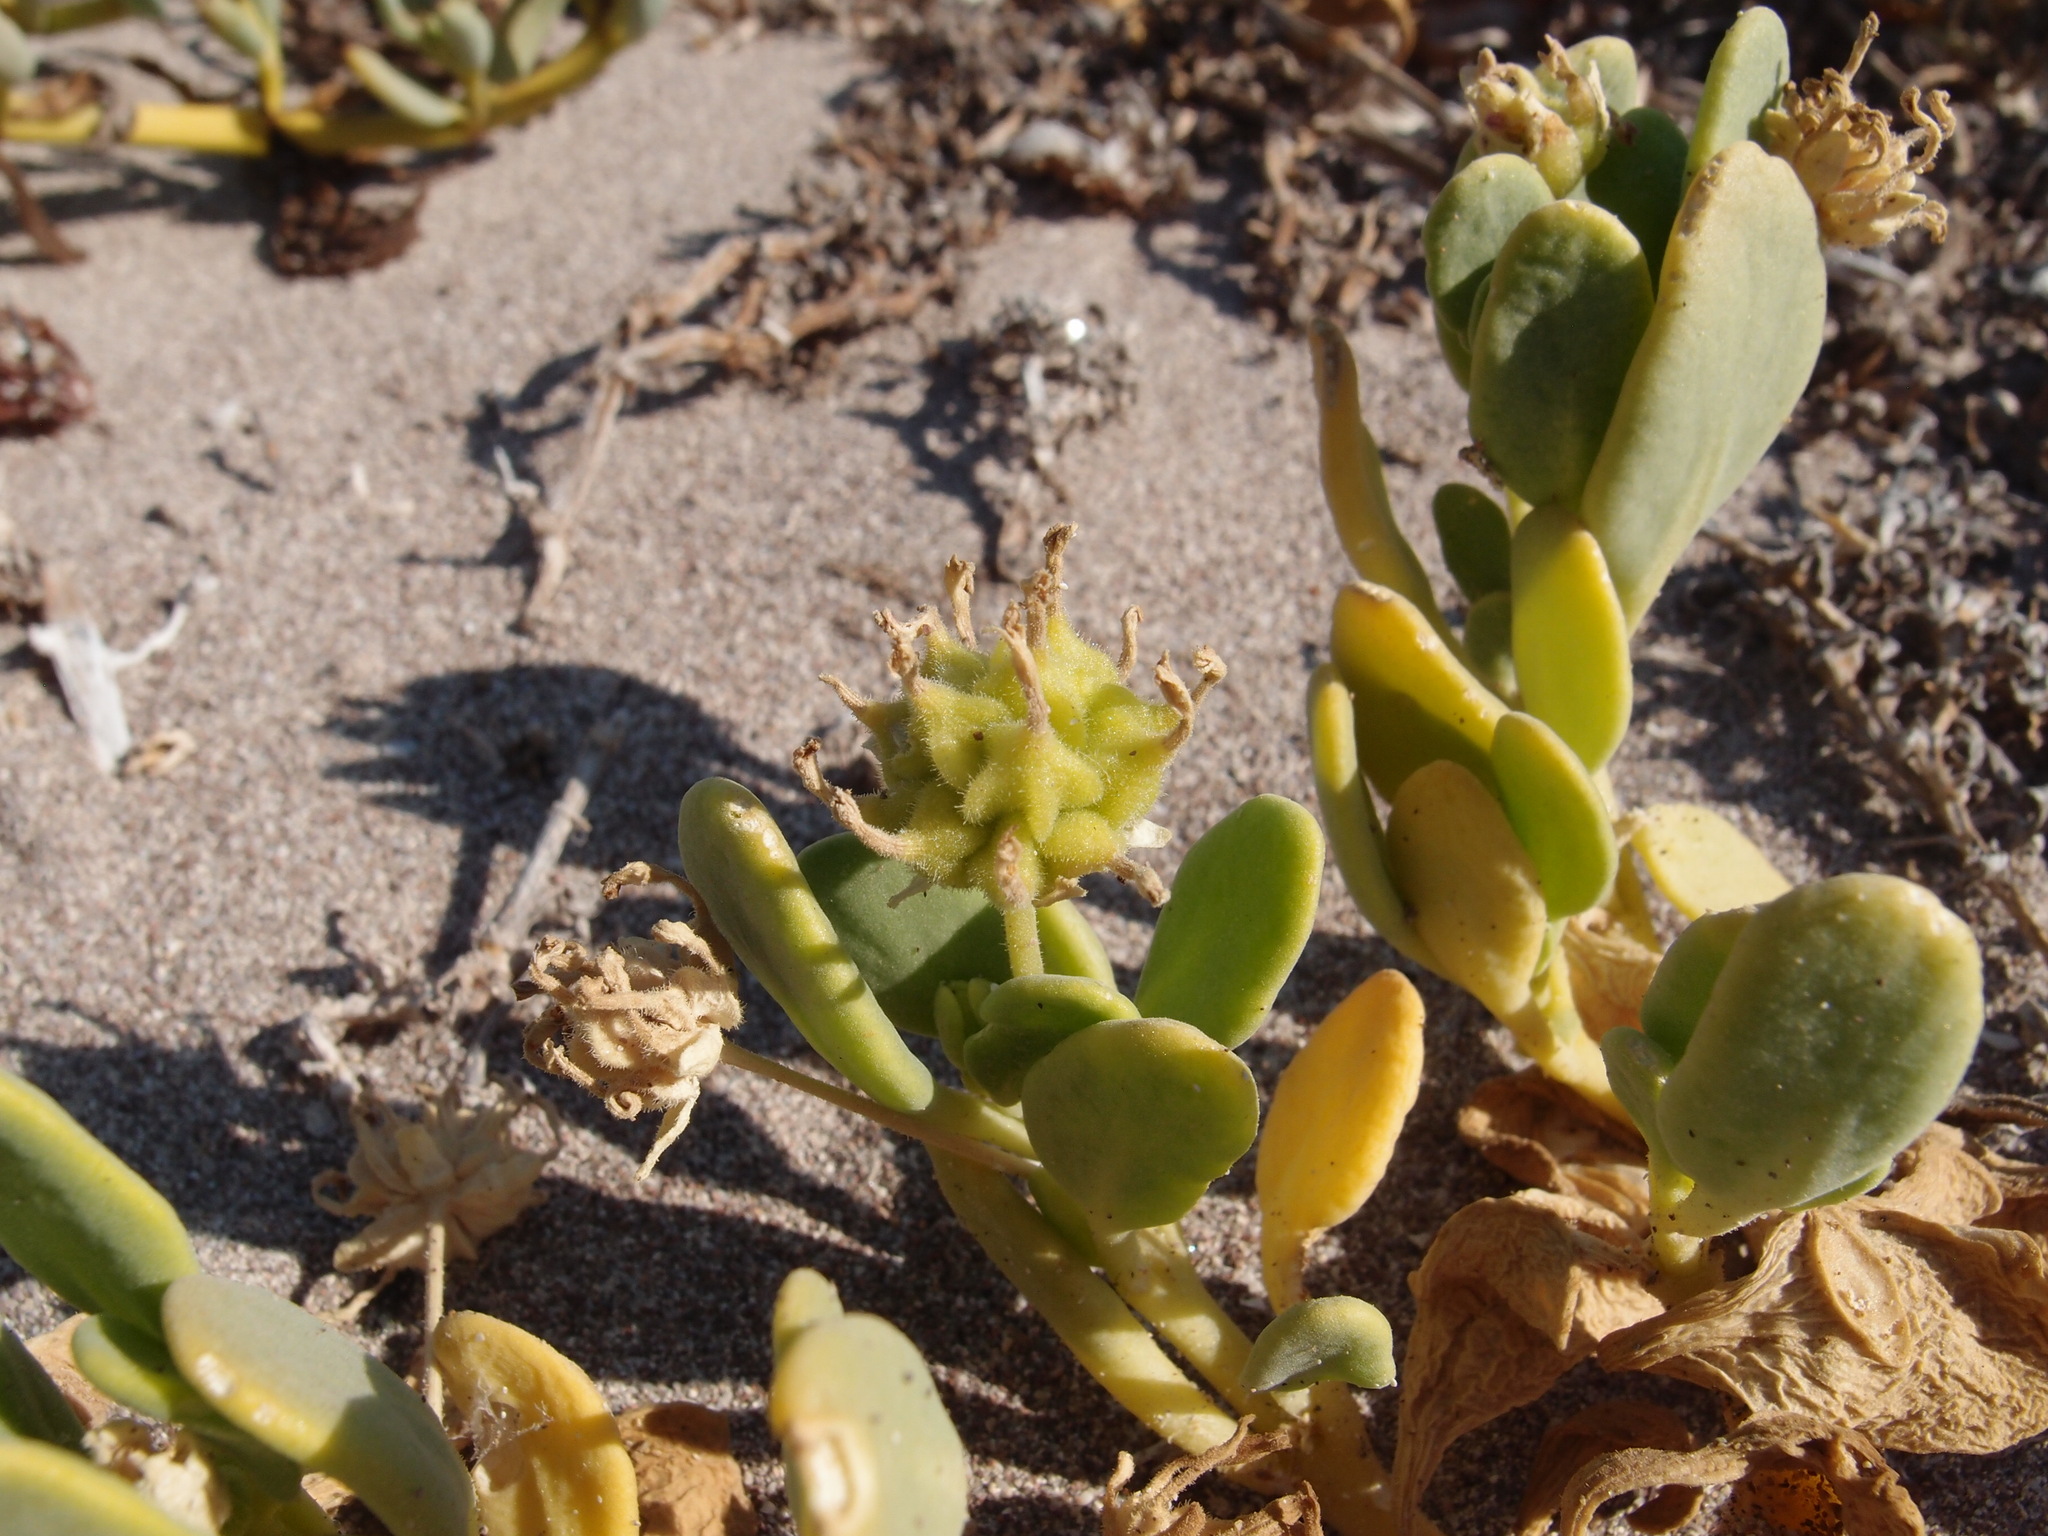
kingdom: Plantae
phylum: Tracheophyta
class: Magnoliopsida
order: Caryophyllales
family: Nyctaginaceae
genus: Abronia
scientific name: Abronia maritima
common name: Red sand-verbena
